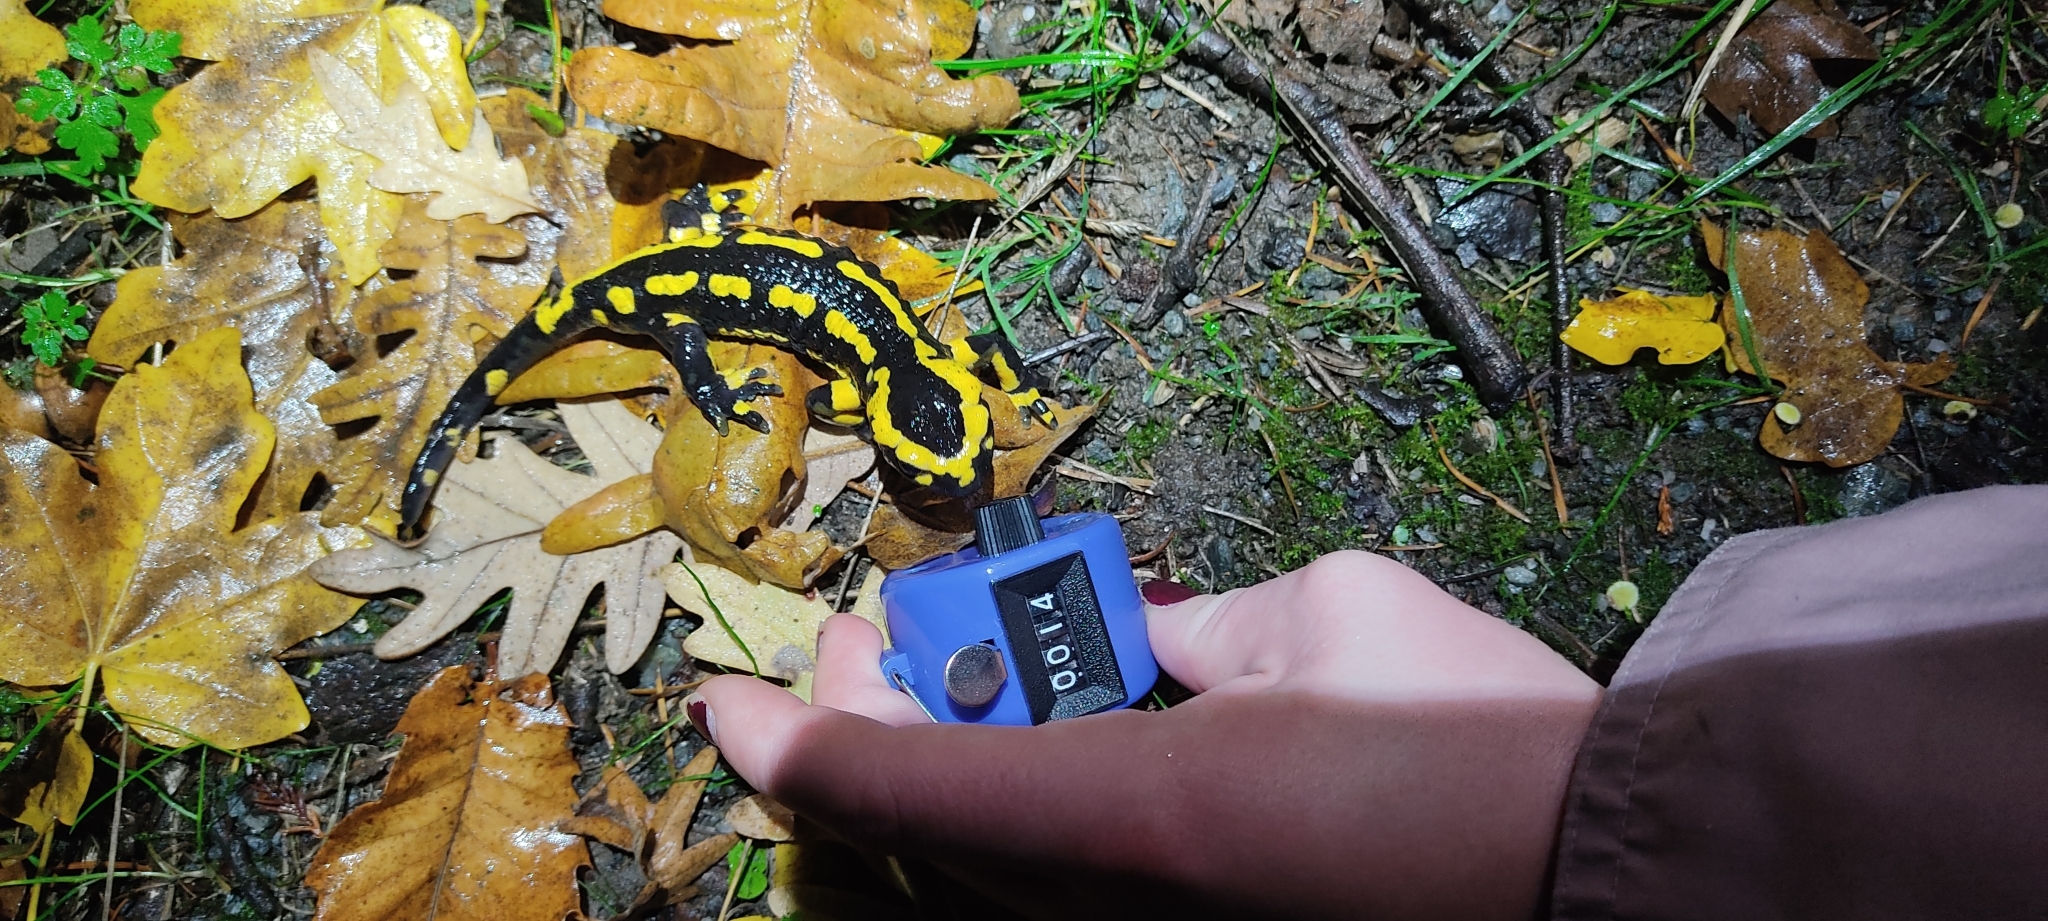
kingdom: Animalia
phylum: Chordata
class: Amphibia
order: Caudata
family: Salamandridae
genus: Salamandra
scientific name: Salamandra salamandra
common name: Fire salamander
